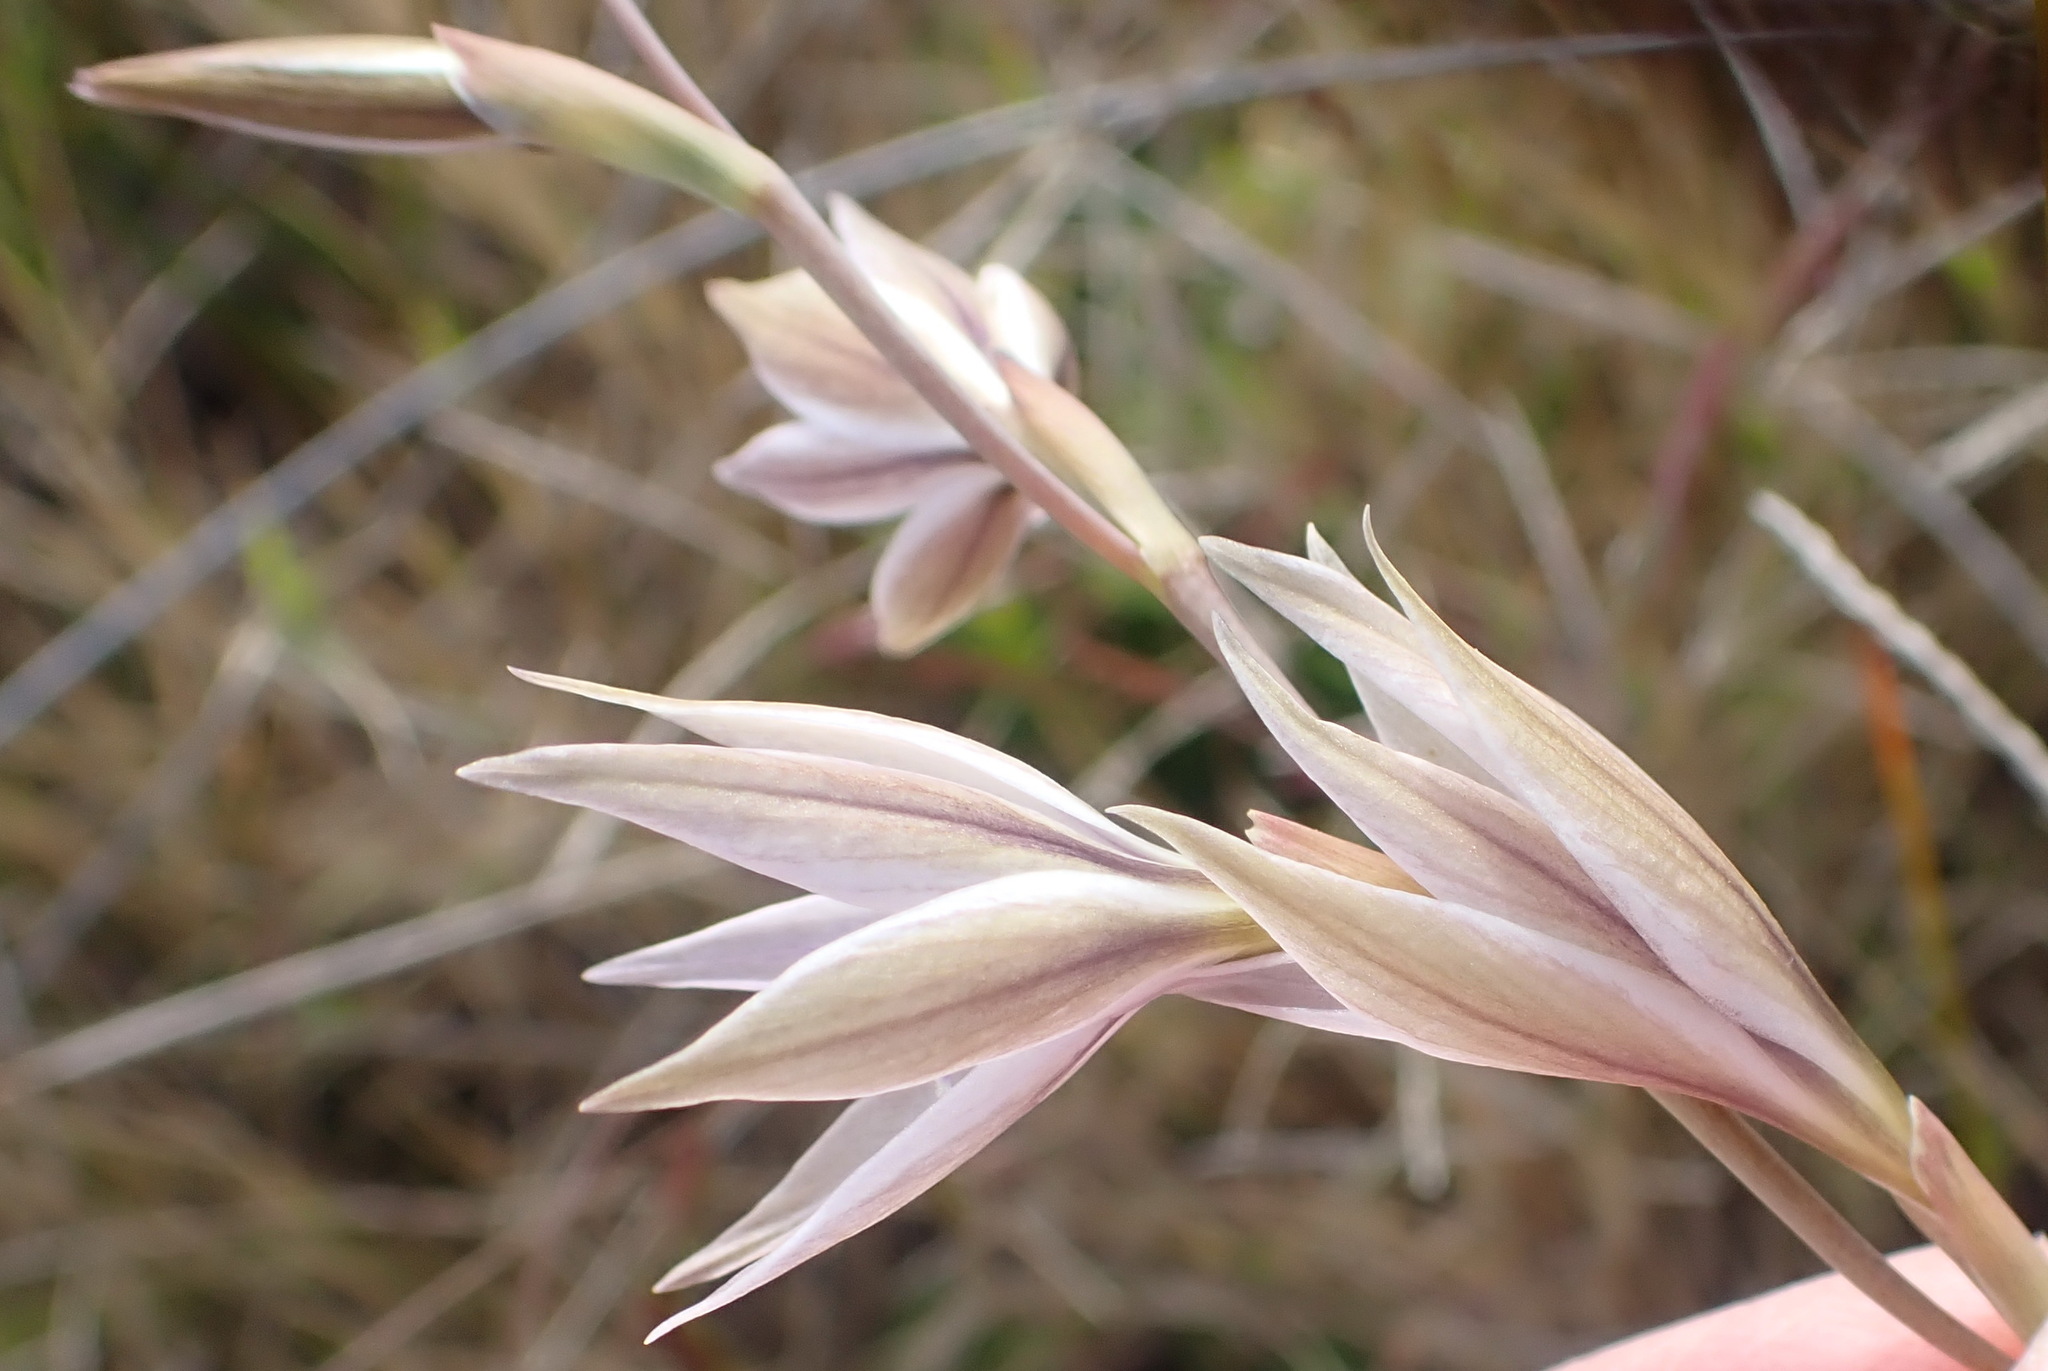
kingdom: Plantae
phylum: Tracheophyta
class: Liliopsida
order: Asparagales
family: Iridaceae
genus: Gladiolus
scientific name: Gladiolus stellatus
